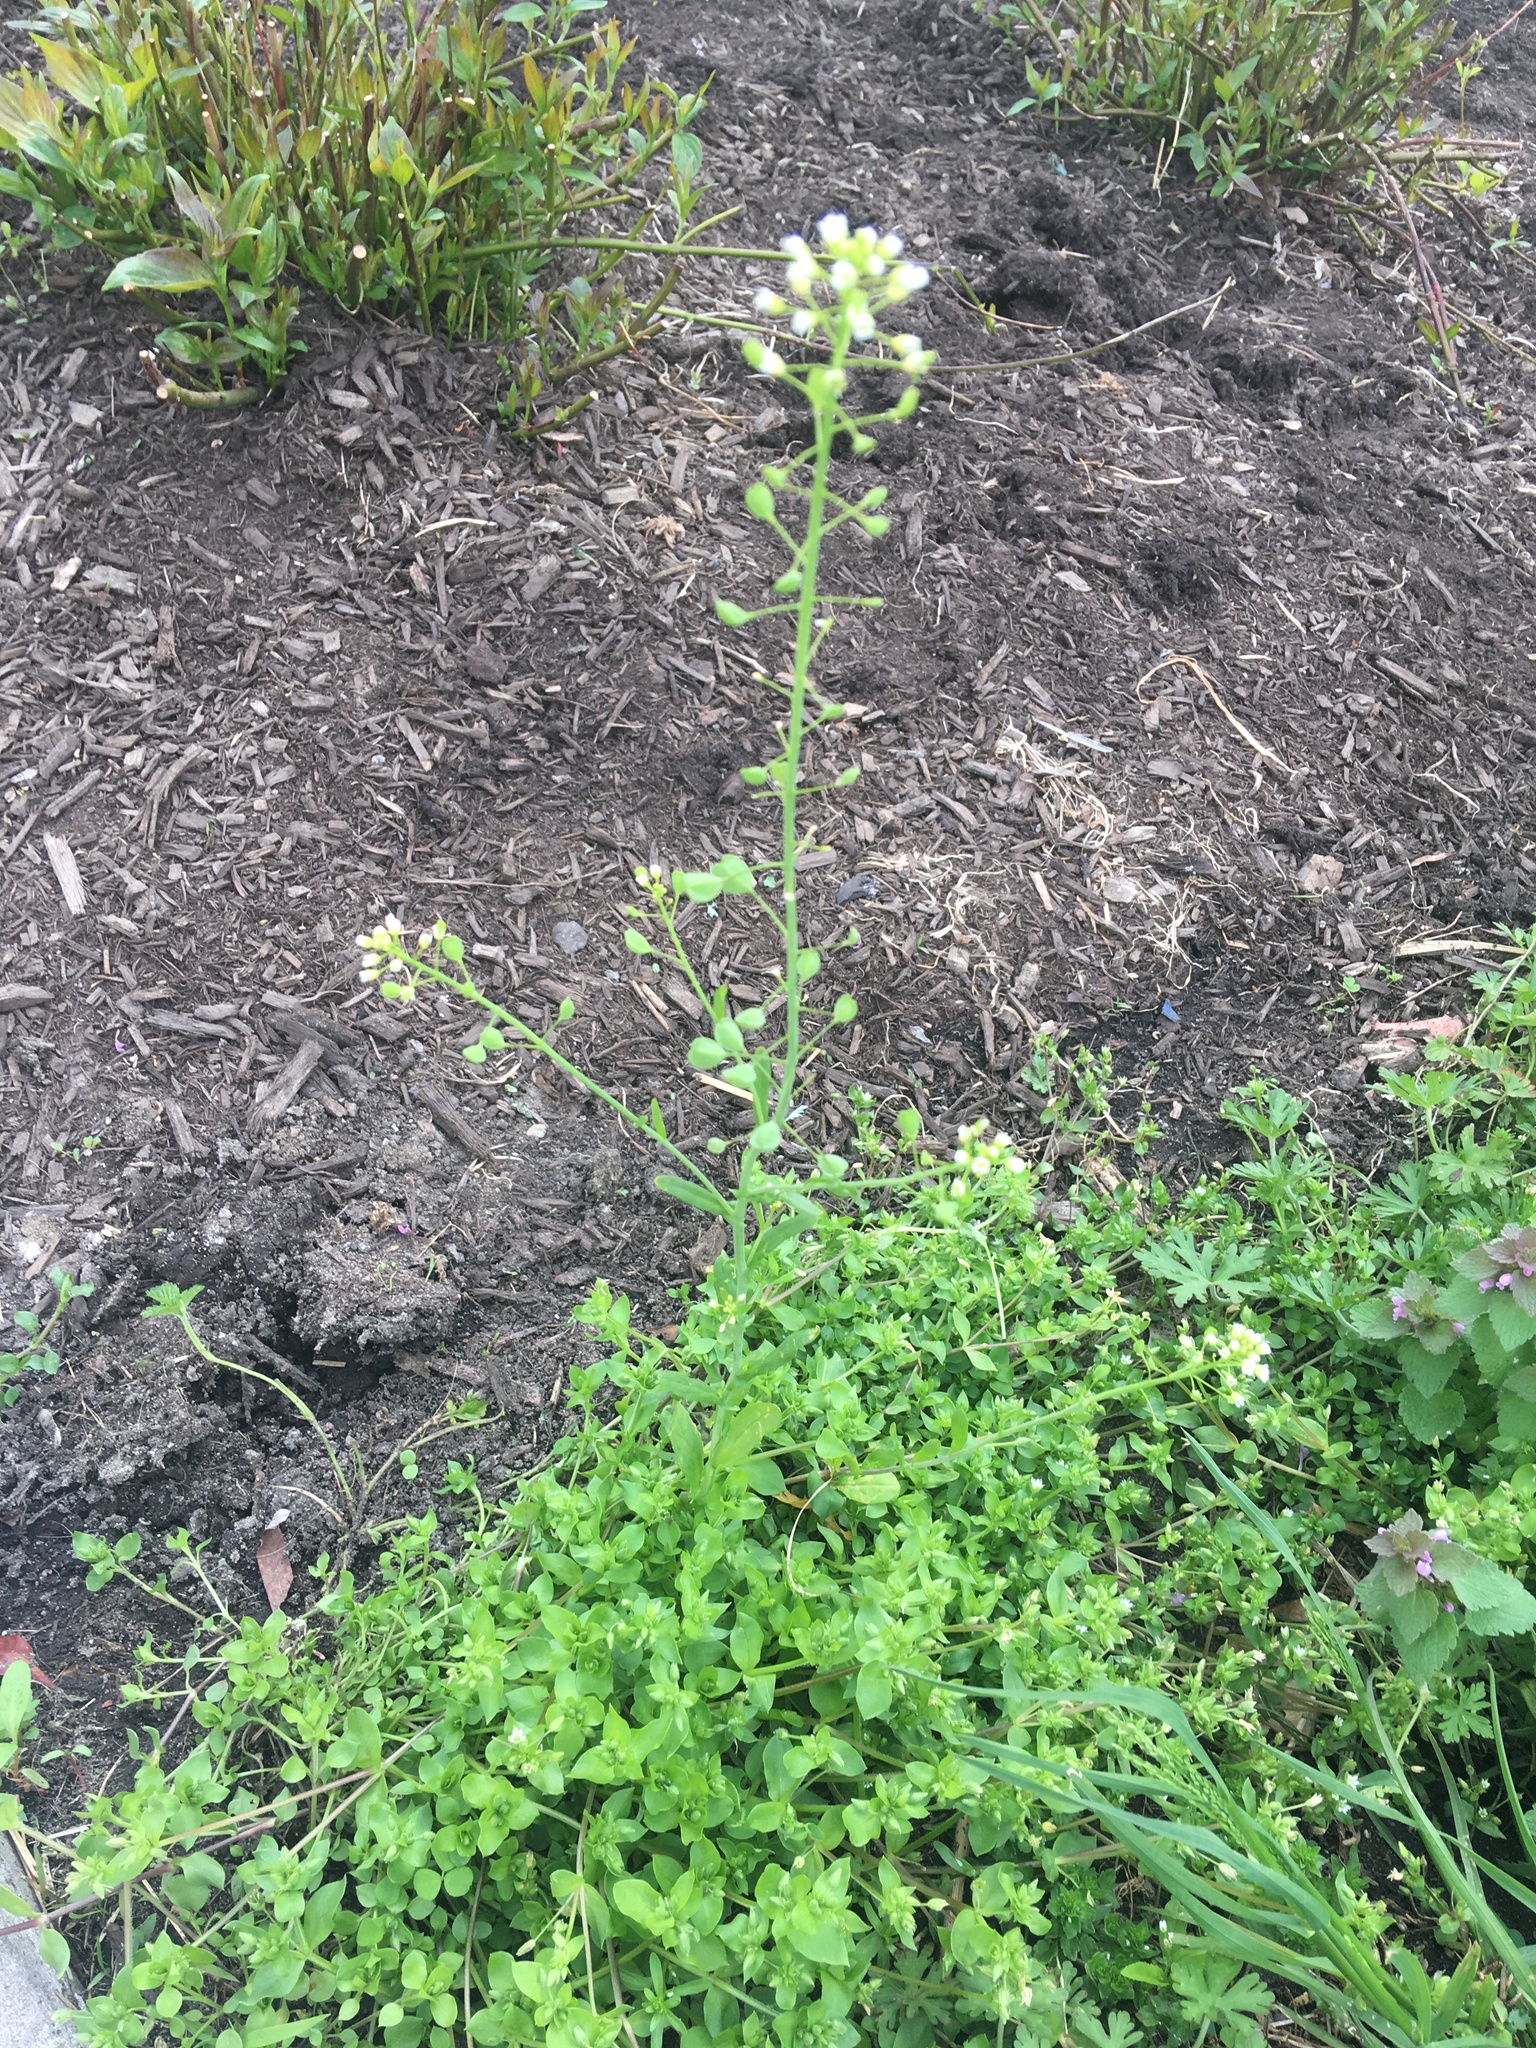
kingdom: Plantae
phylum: Tracheophyta
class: Magnoliopsida
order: Brassicales
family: Brassicaceae
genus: Mummenhoffia
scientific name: Mummenhoffia alliacea
